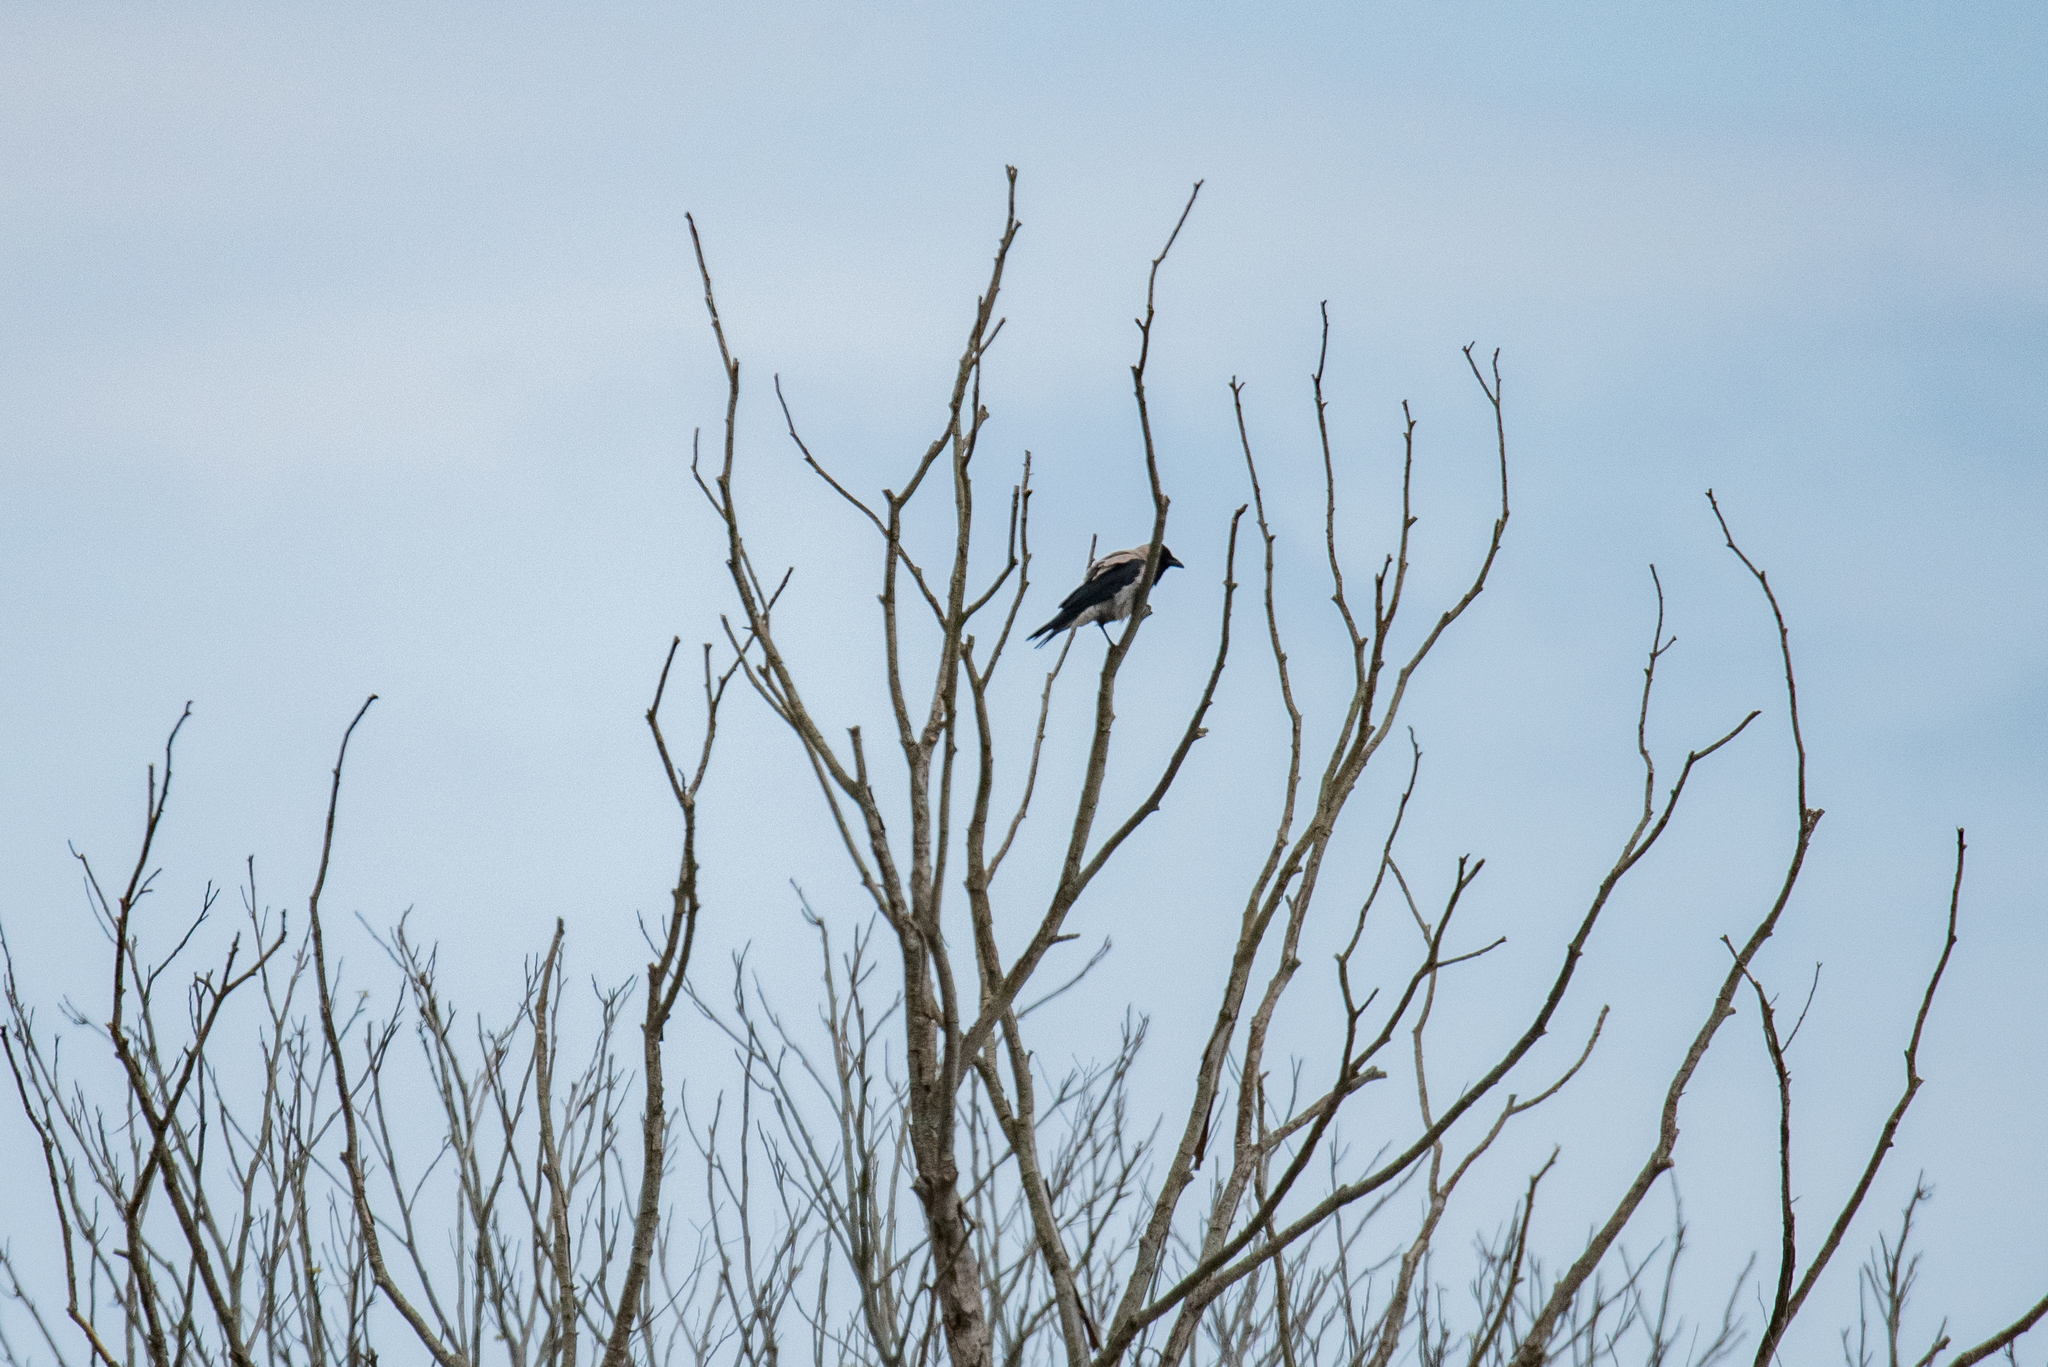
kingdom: Animalia
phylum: Chordata
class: Aves
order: Passeriformes
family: Corvidae
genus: Corvus
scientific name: Corvus cornix
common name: Hooded crow
